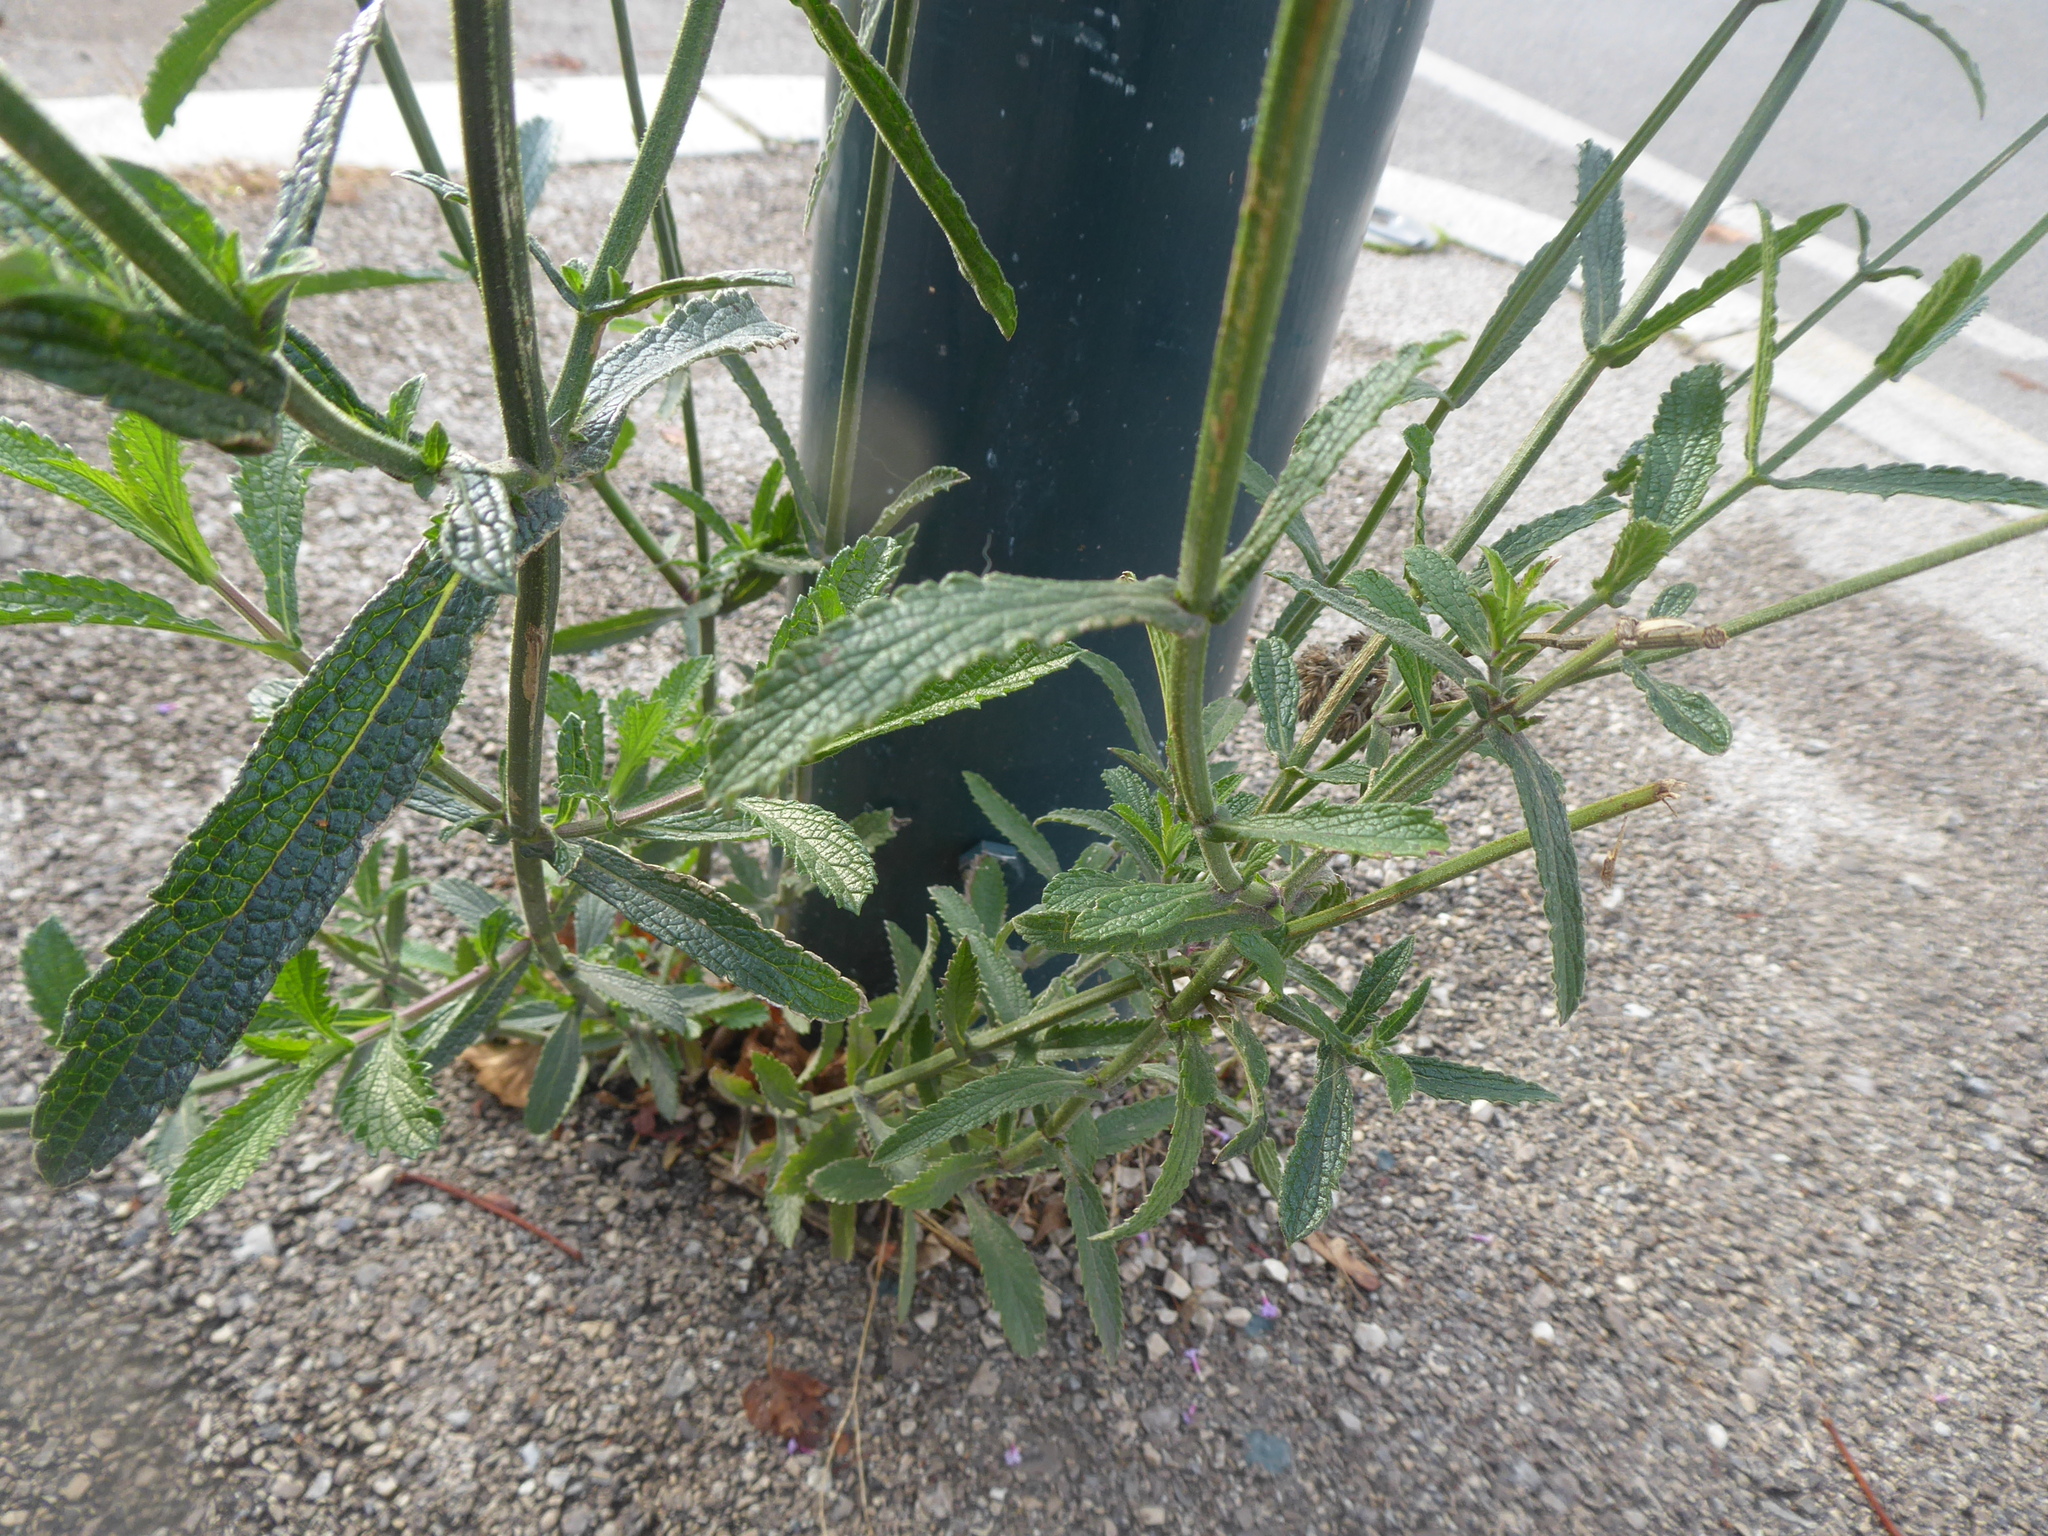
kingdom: Plantae
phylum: Tracheophyta
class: Magnoliopsida
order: Lamiales
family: Verbenaceae
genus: Verbena
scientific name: Verbena bonariensis
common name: Purpletop vervain
